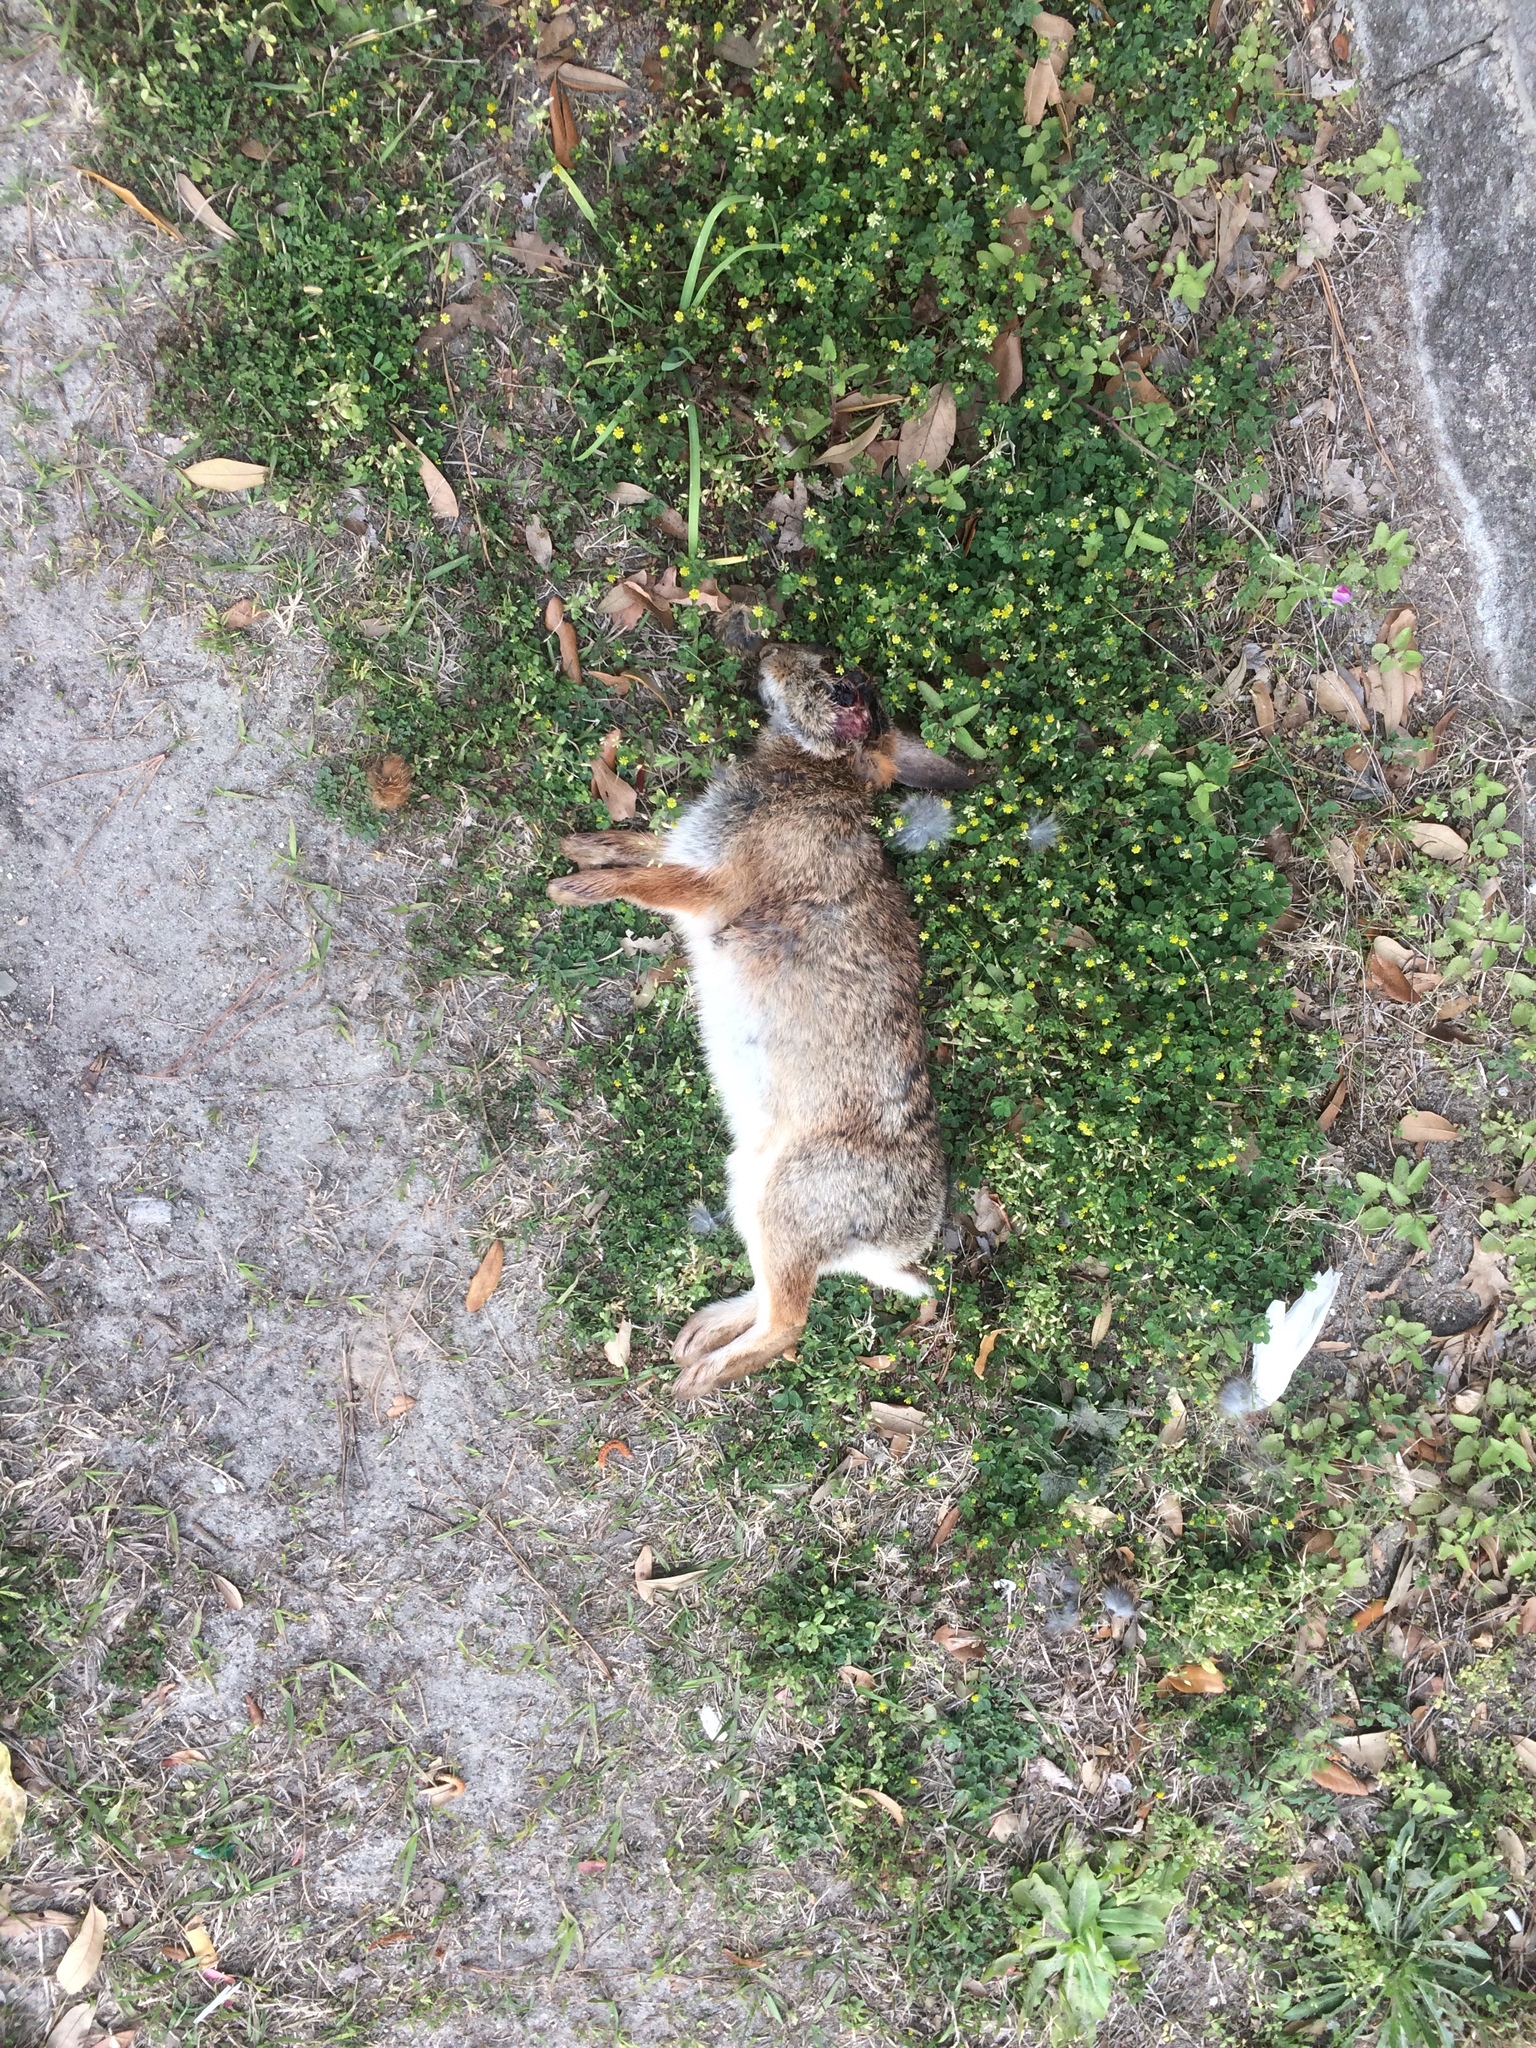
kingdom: Animalia
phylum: Chordata
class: Mammalia
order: Lagomorpha
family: Leporidae
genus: Sylvilagus
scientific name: Sylvilagus floridanus
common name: Eastern cottontail
